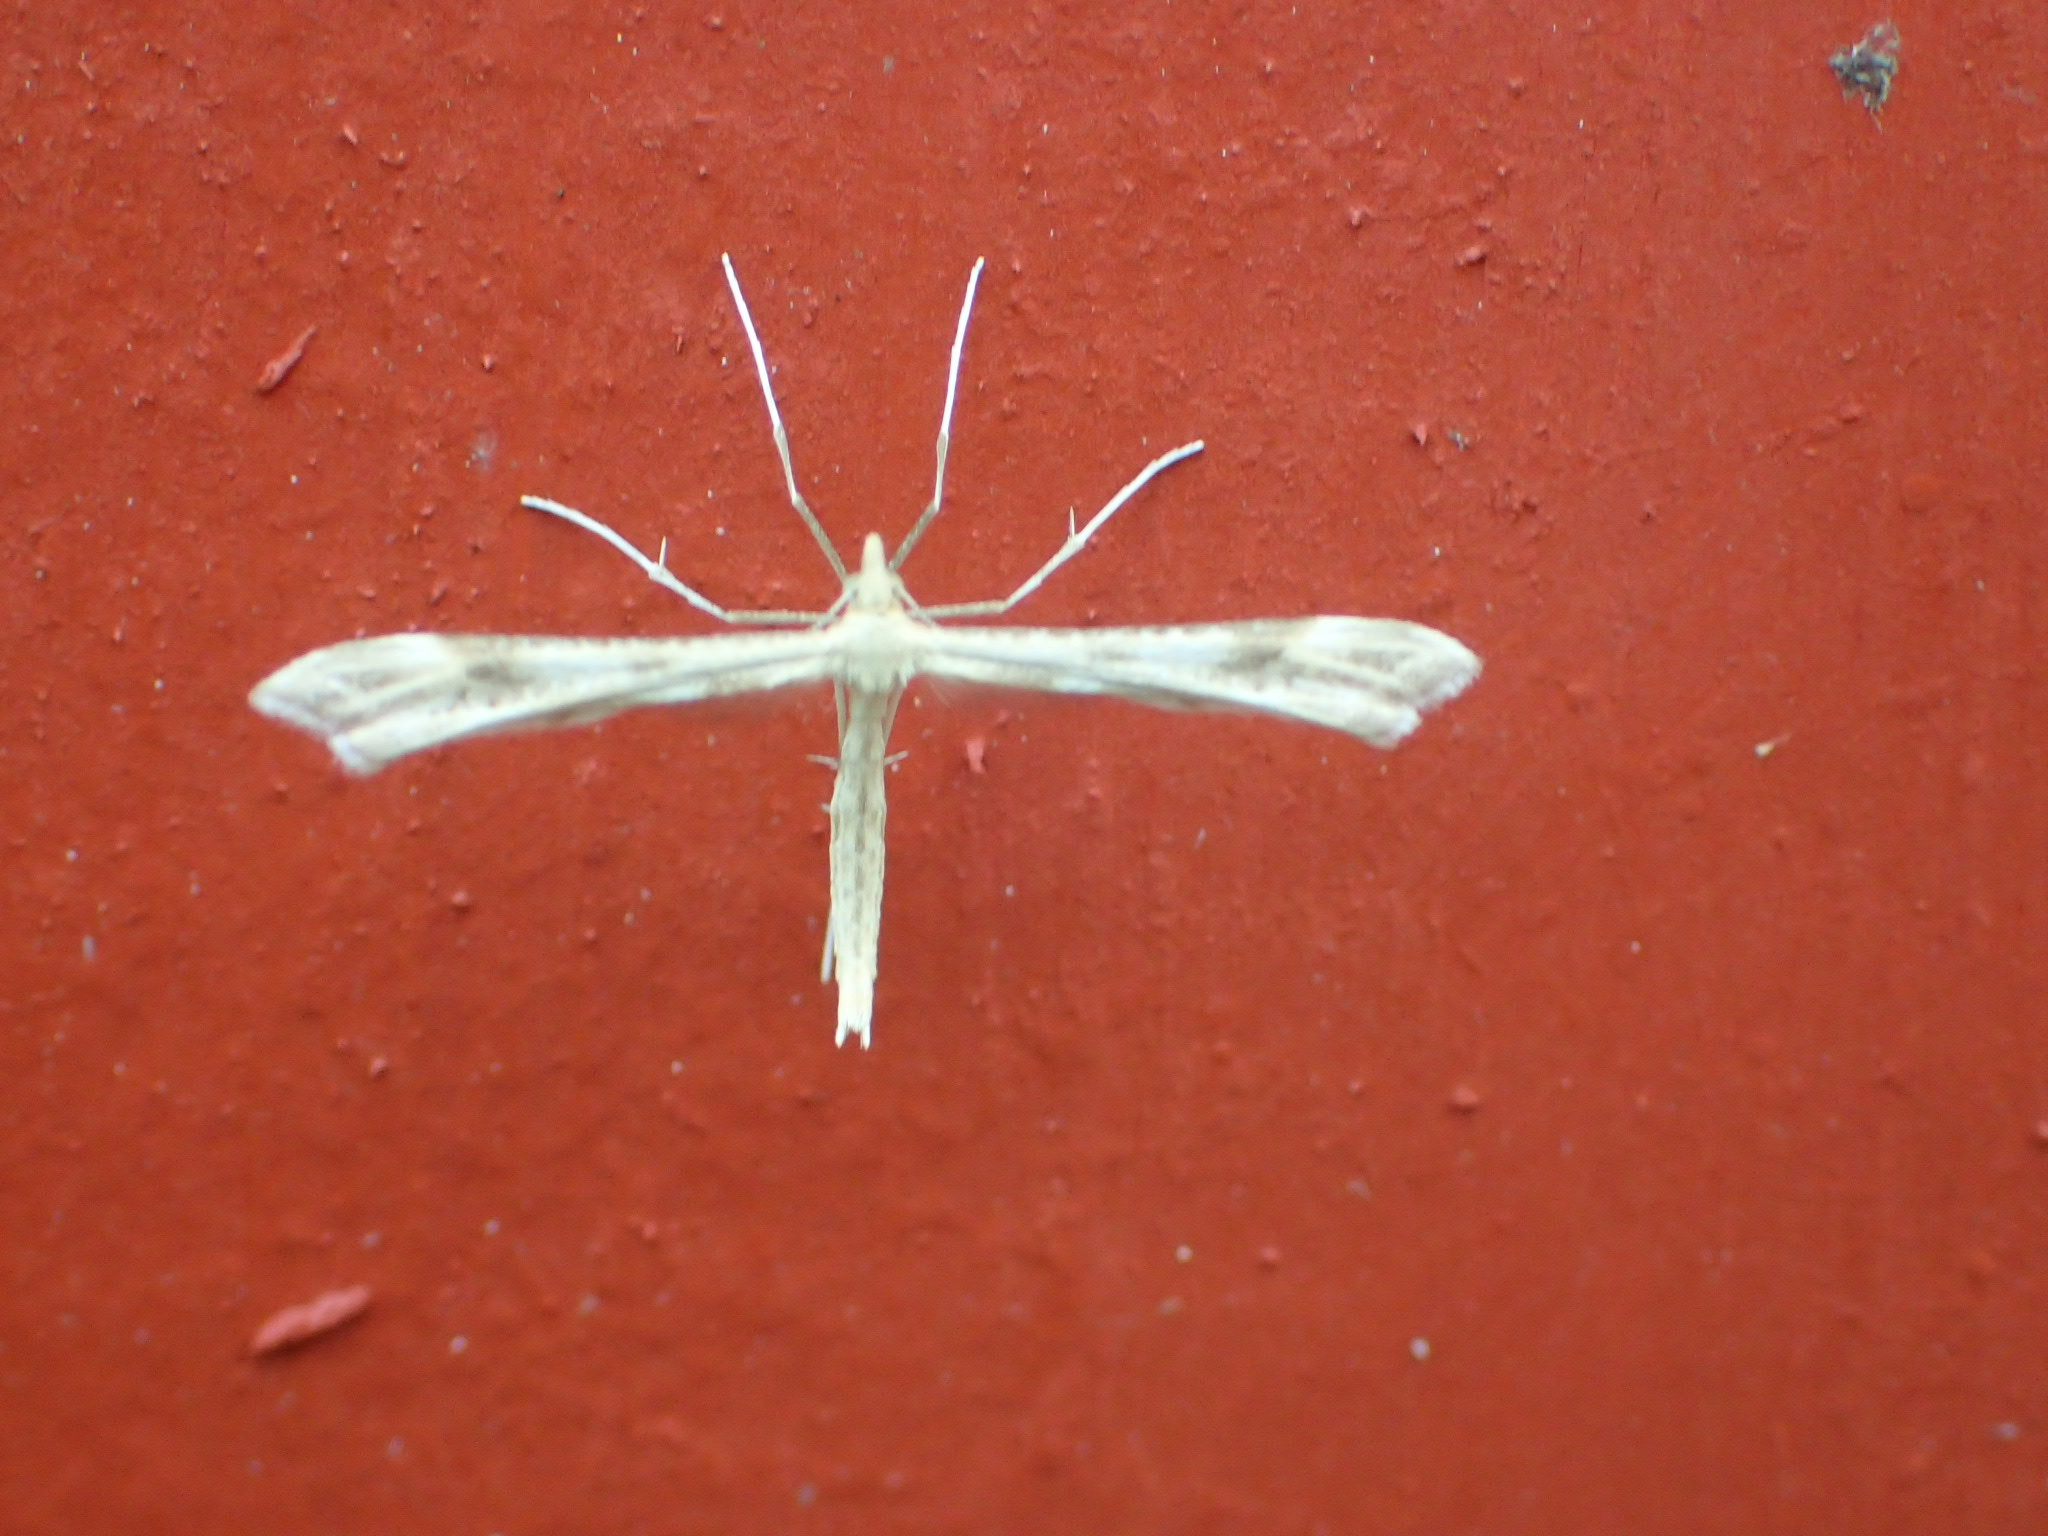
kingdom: Animalia
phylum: Arthropoda
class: Insecta
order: Lepidoptera
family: Pterophoridae
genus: Gillmeria
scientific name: Gillmeria pallidactyla
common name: Yarrow plume
